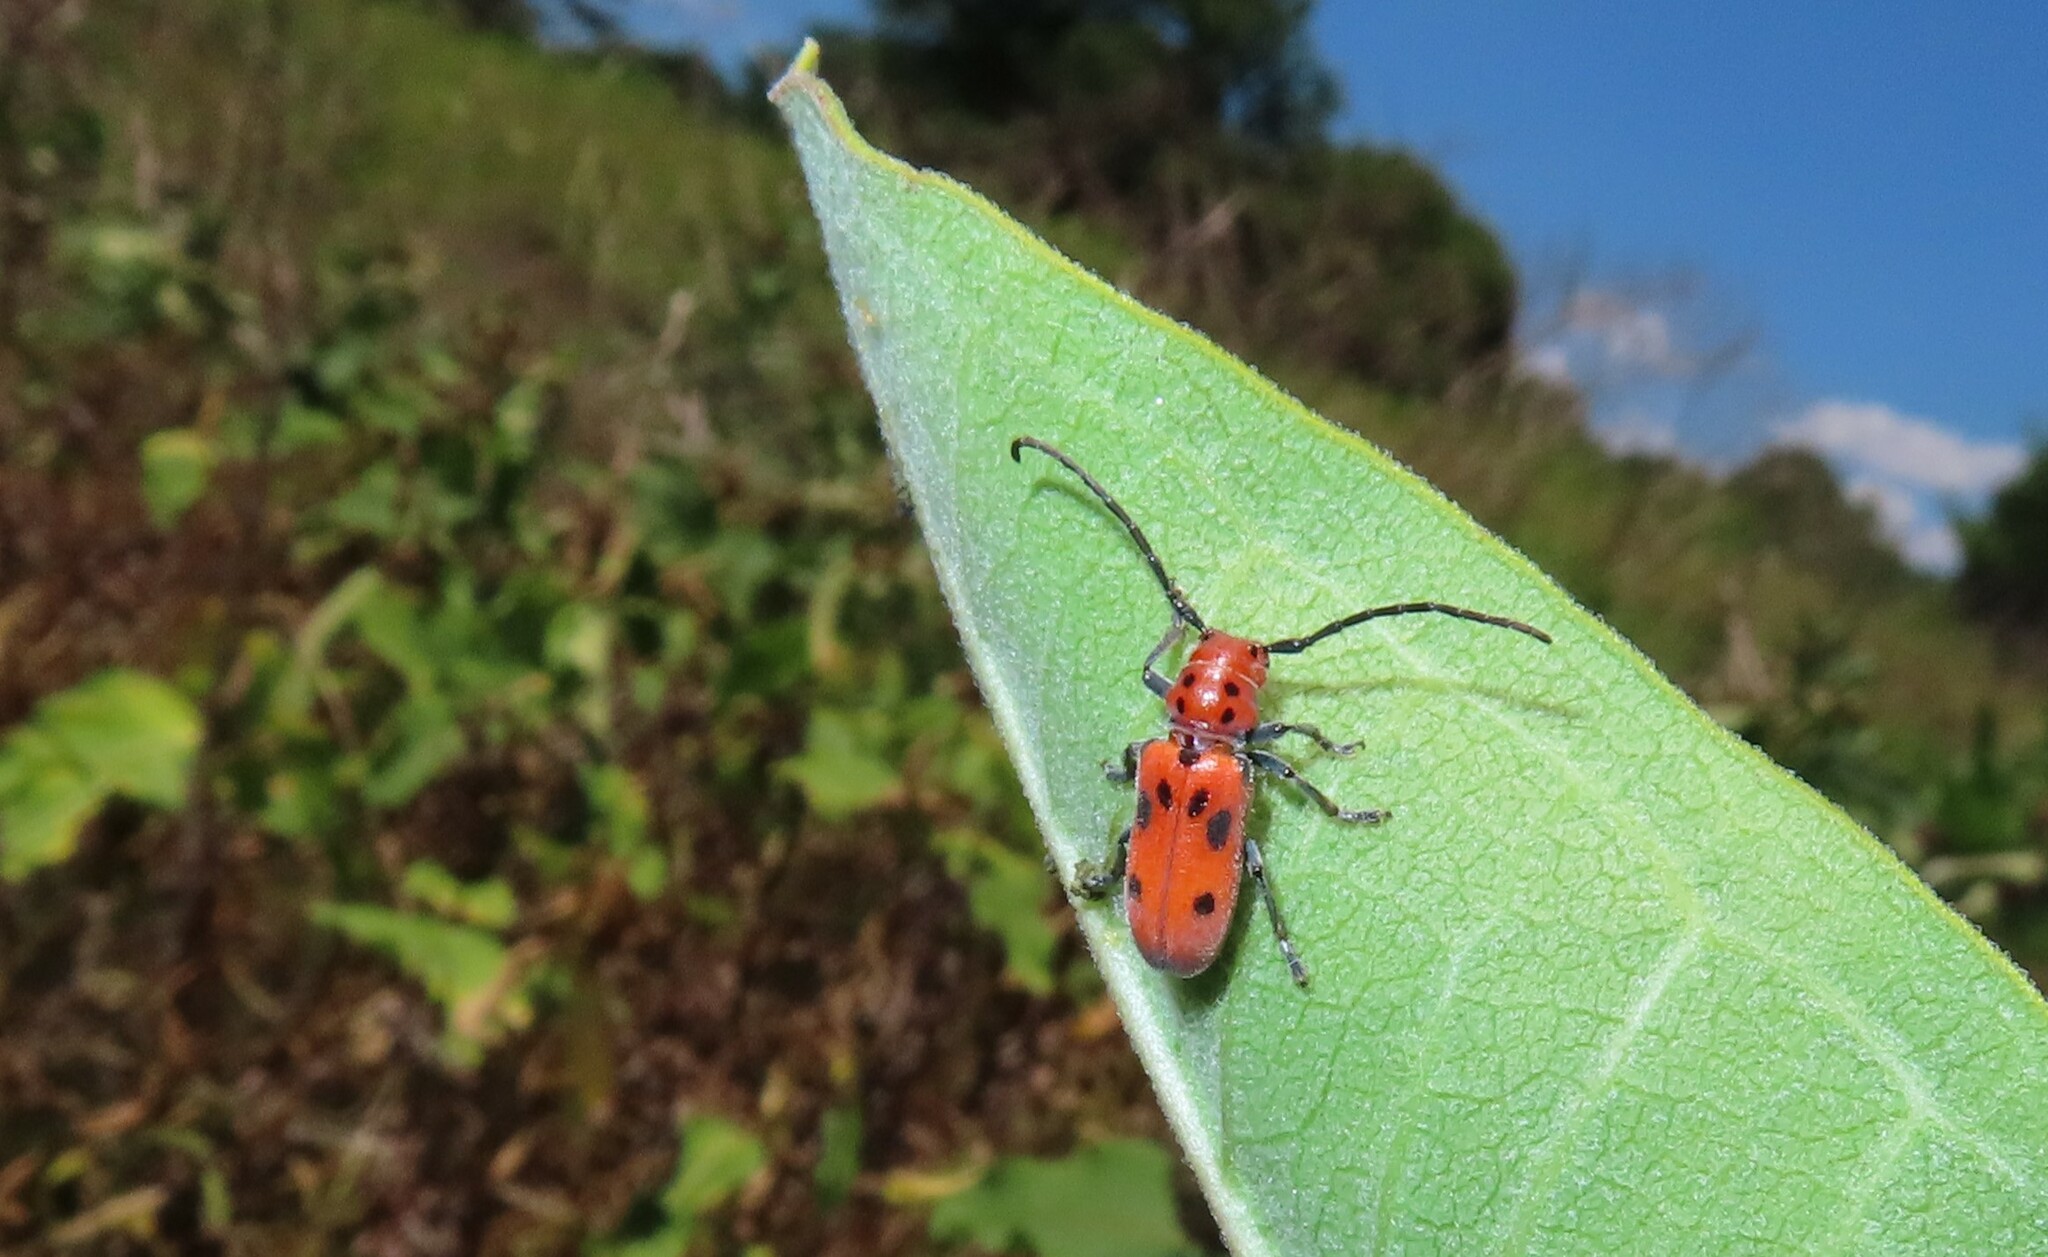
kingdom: Animalia
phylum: Arthropoda
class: Insecta
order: Coleoptera
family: Cerambycidae
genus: Tetraopes
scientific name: Tetraopes tetrophthalmus
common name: Red milkweed beetle
